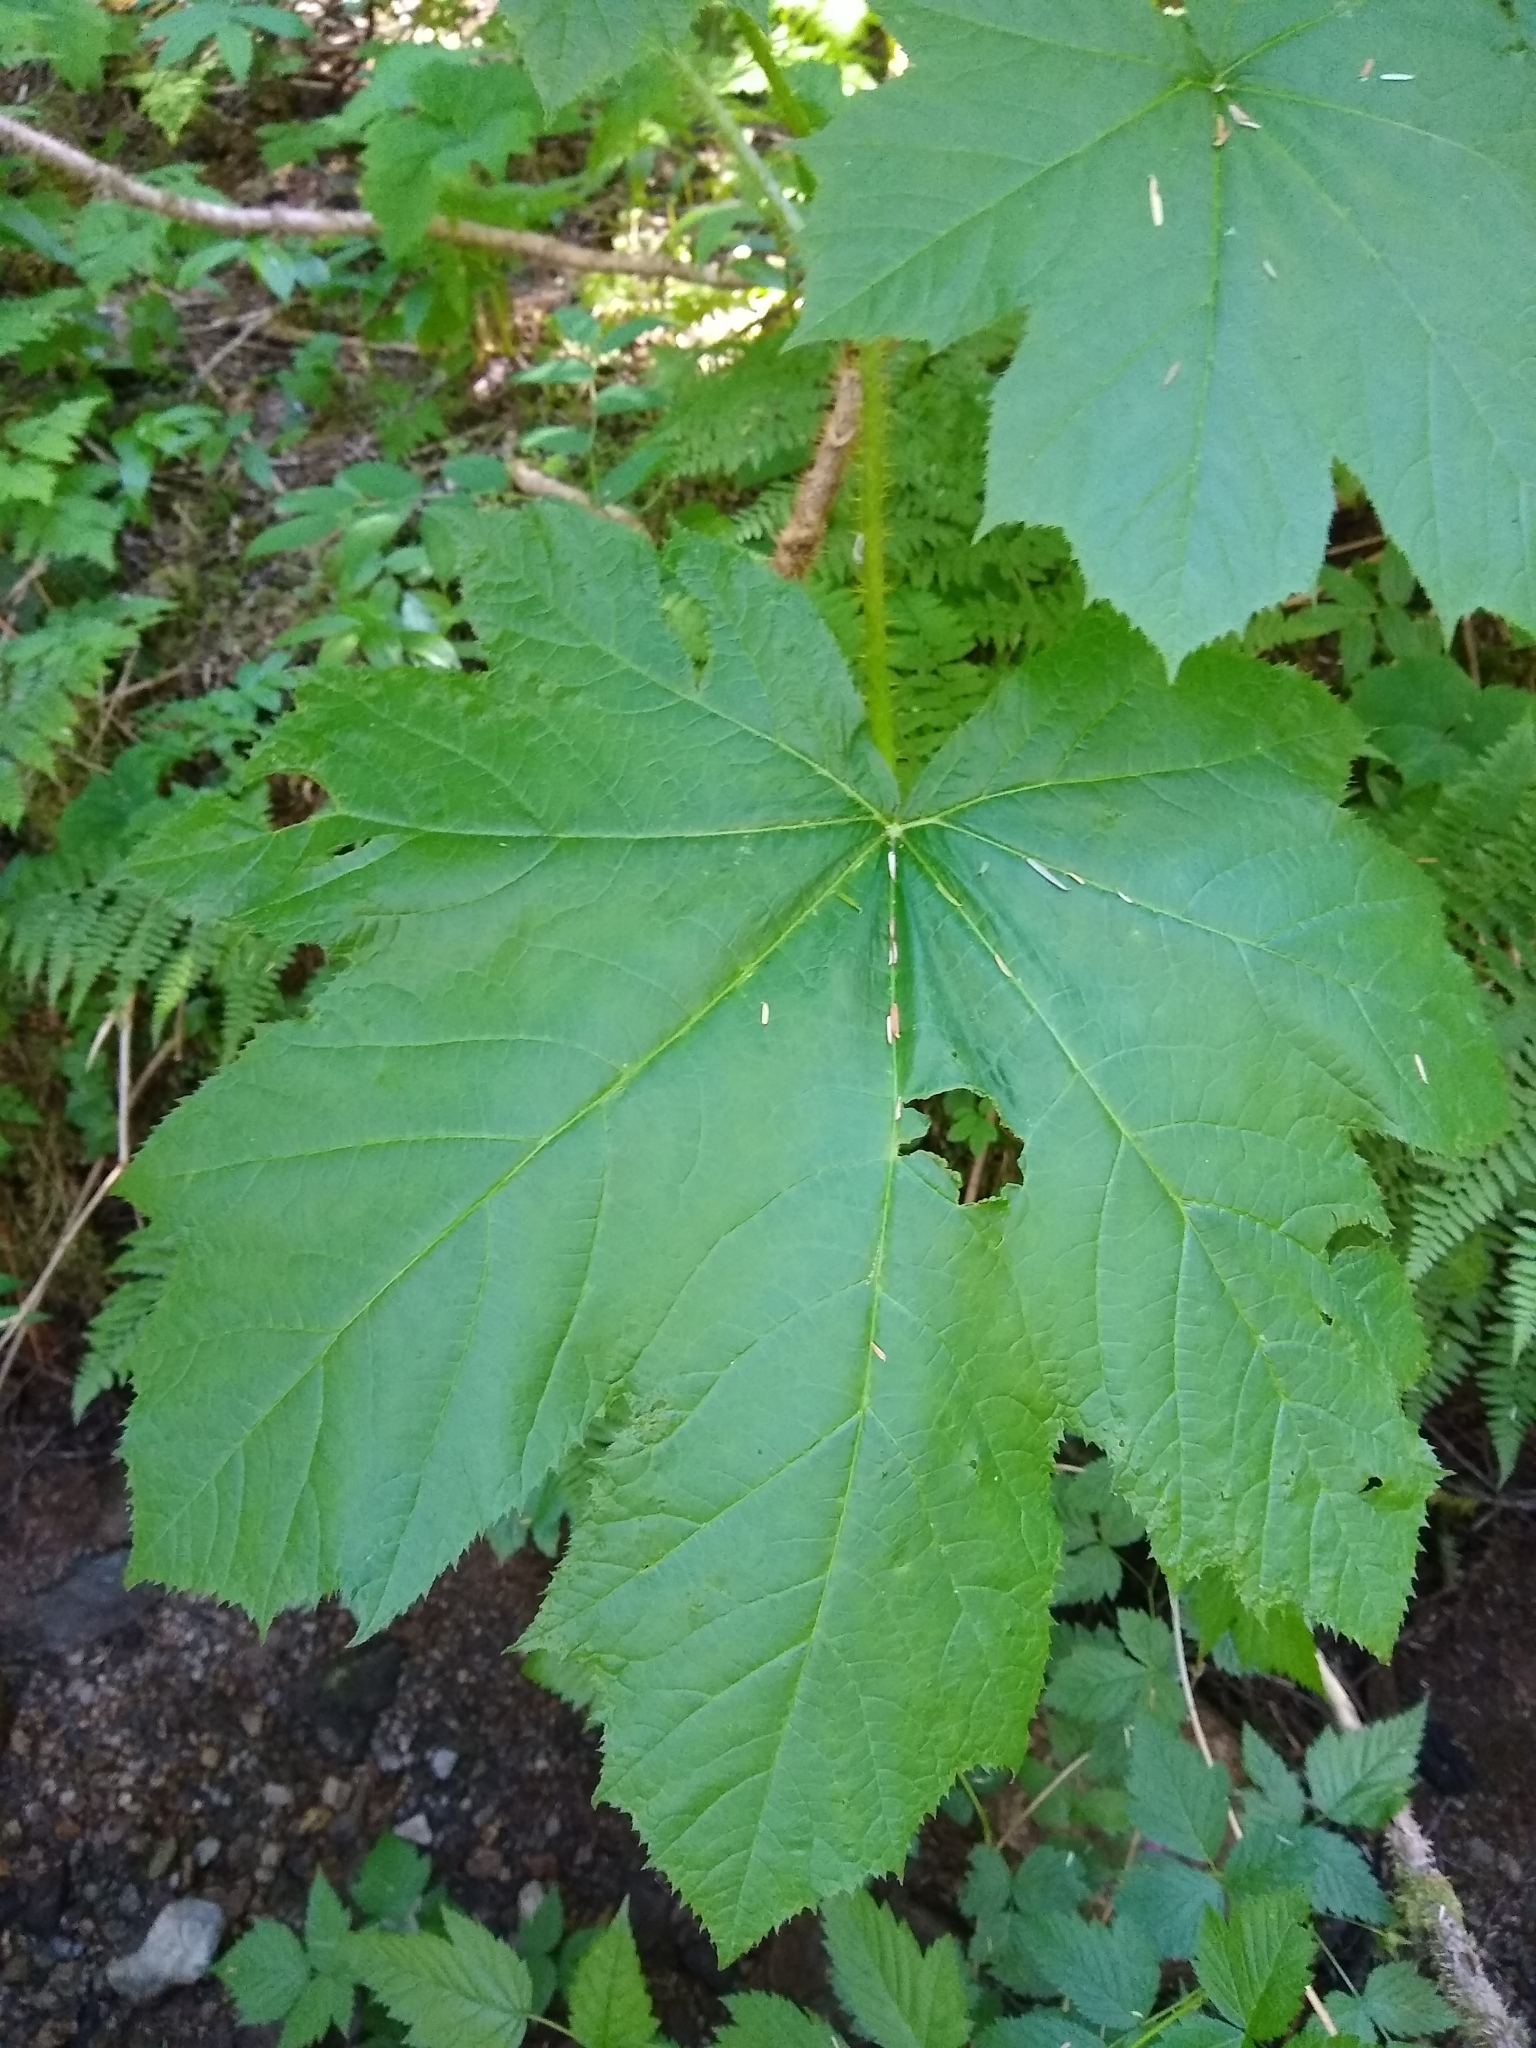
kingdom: Plantae
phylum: Tracheophyta
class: Magnoliopsida
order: Apiales
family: Araliaceae
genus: Oplopanax
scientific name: Oplopanax horridus
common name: Devil's walking-stick
